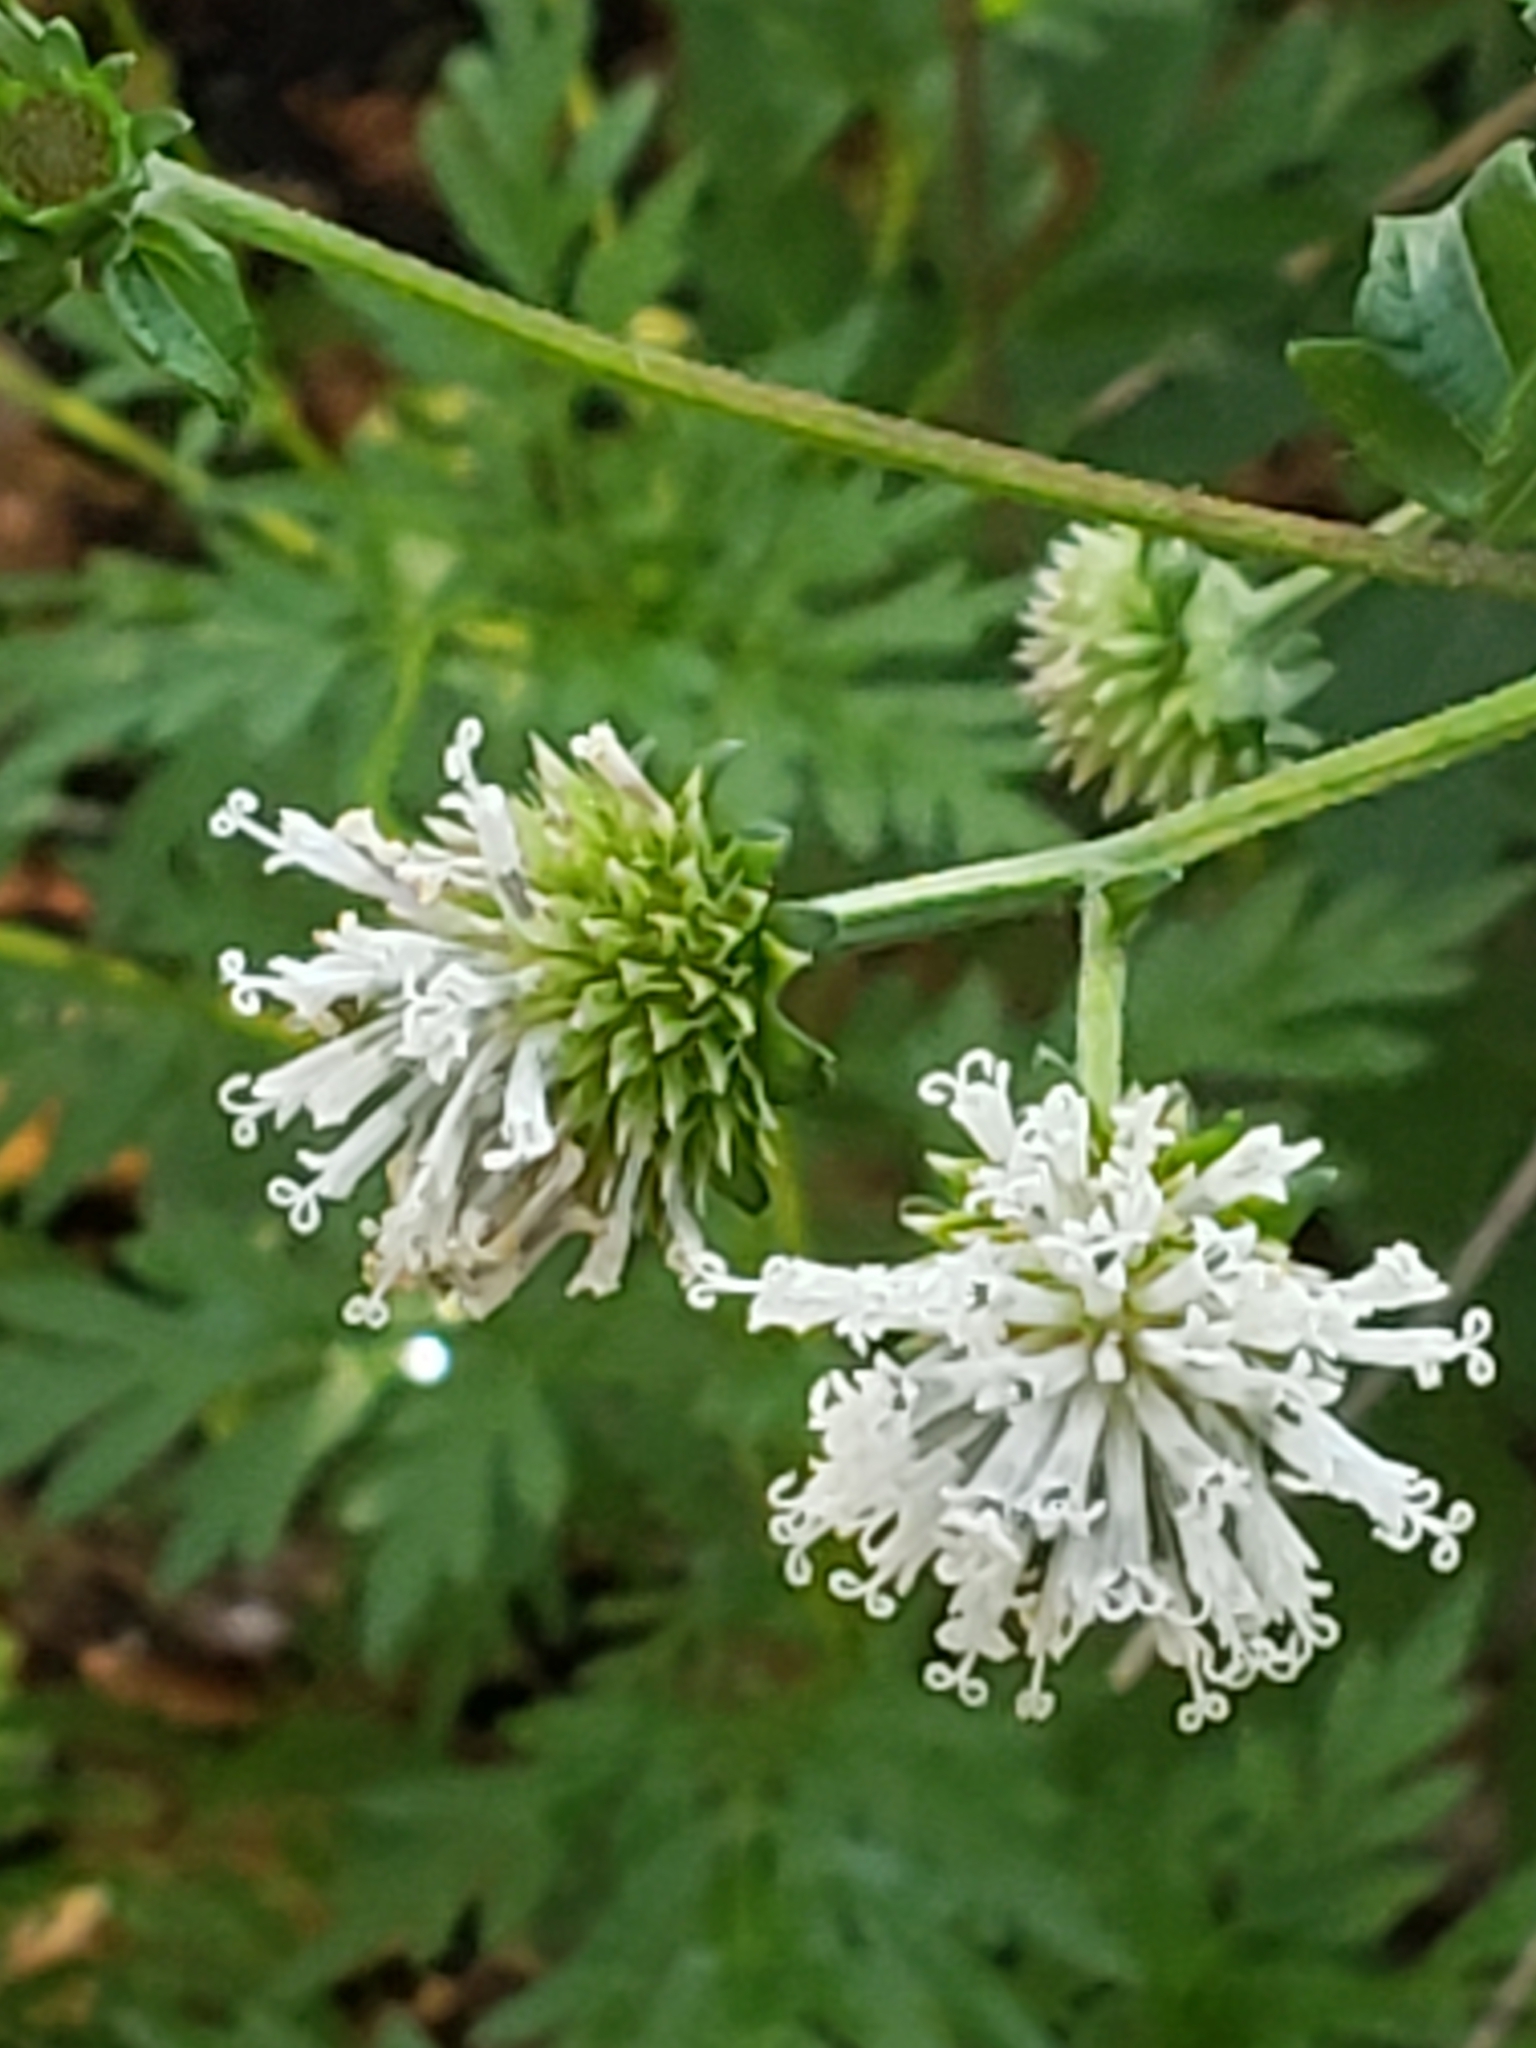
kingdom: Plantae
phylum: Tracheophyta
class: Magnoliopsida
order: Asterales
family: Asteraceae
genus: Melanthera
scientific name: Melanthera nivea
